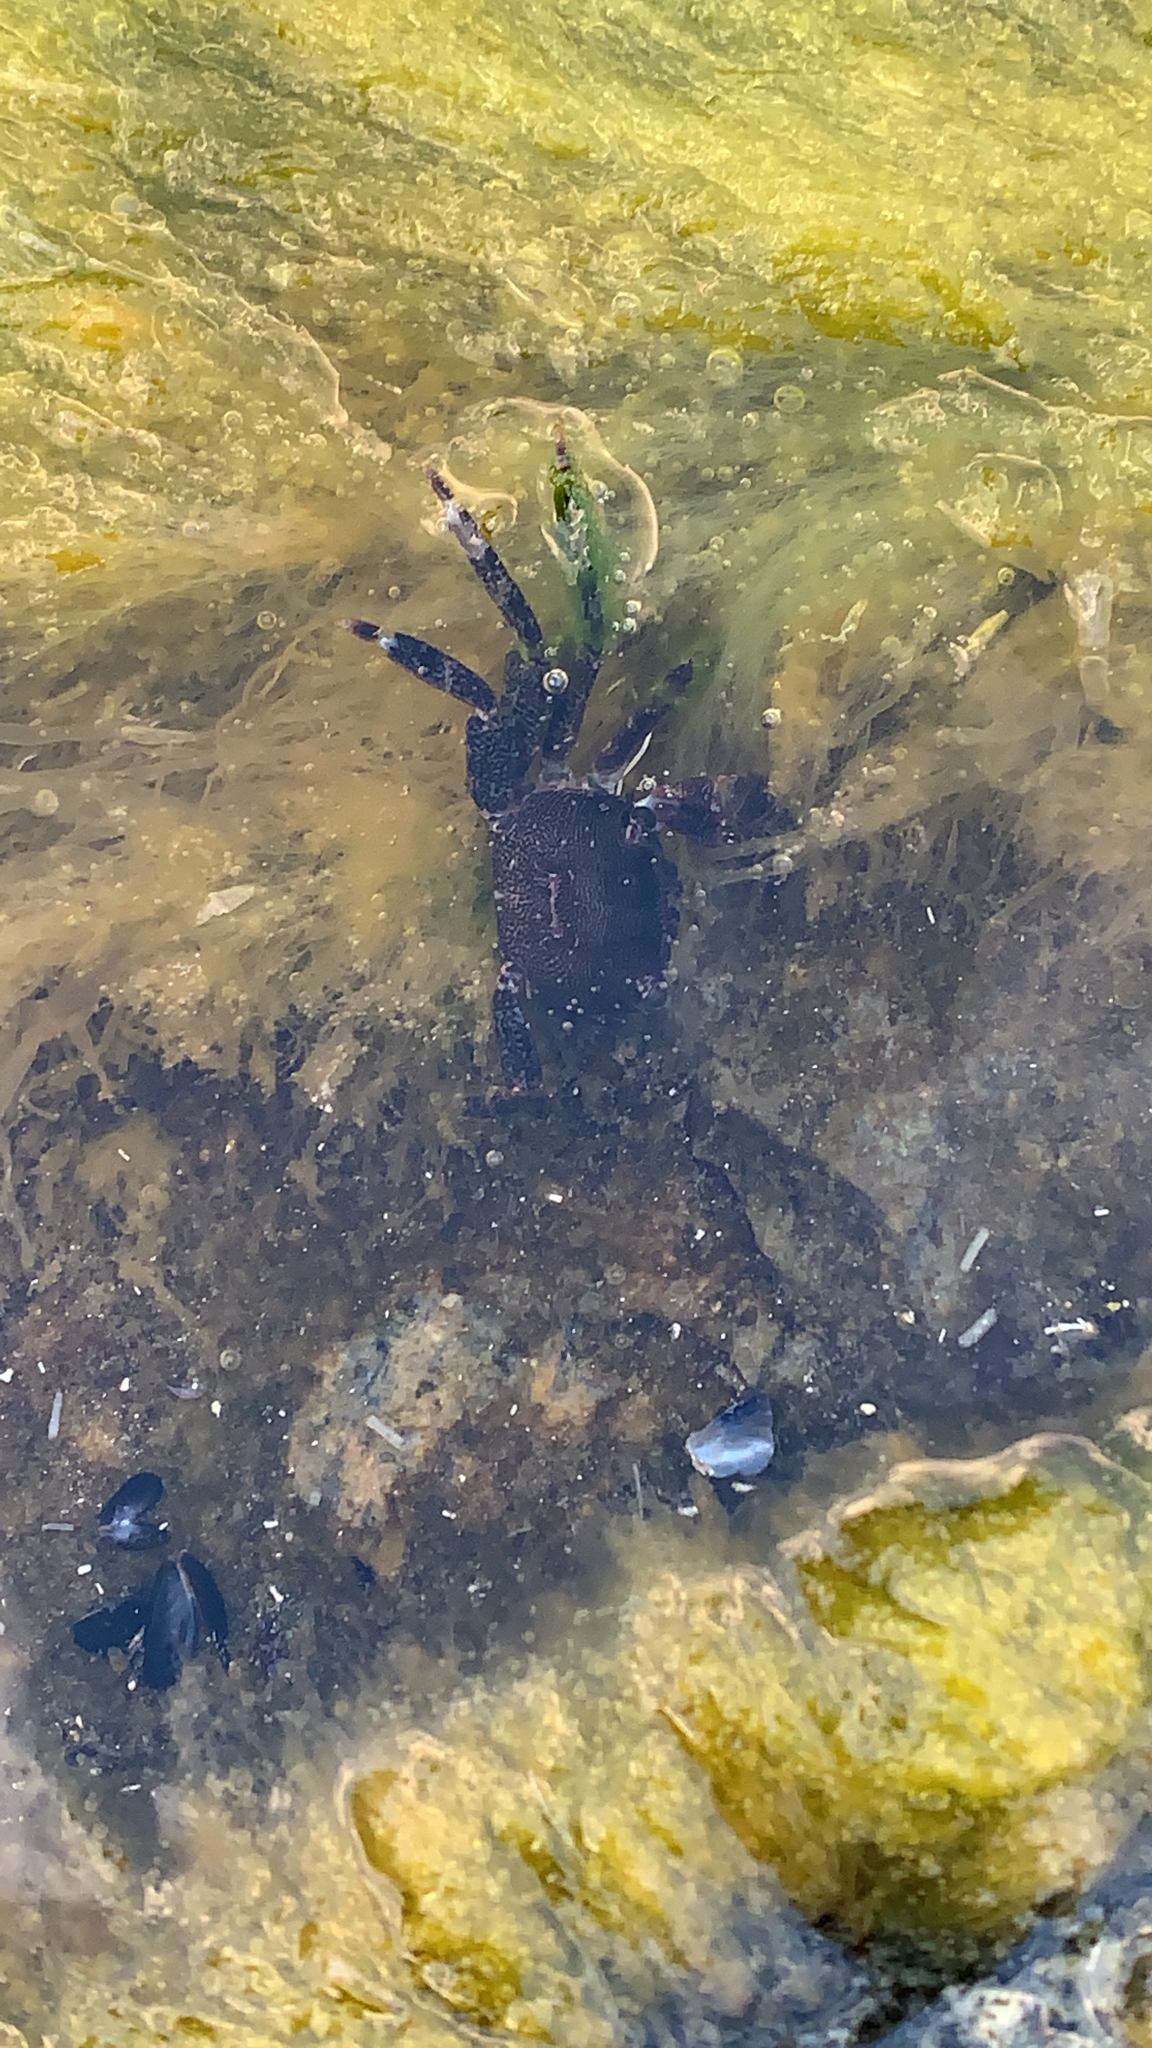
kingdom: Animalia
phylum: Arthropoda
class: Malacostraca
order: Decapoda
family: Grapsidae
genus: Pachygrapsus
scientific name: Pachygrapsus marmoratus
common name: Marbled rock crab
